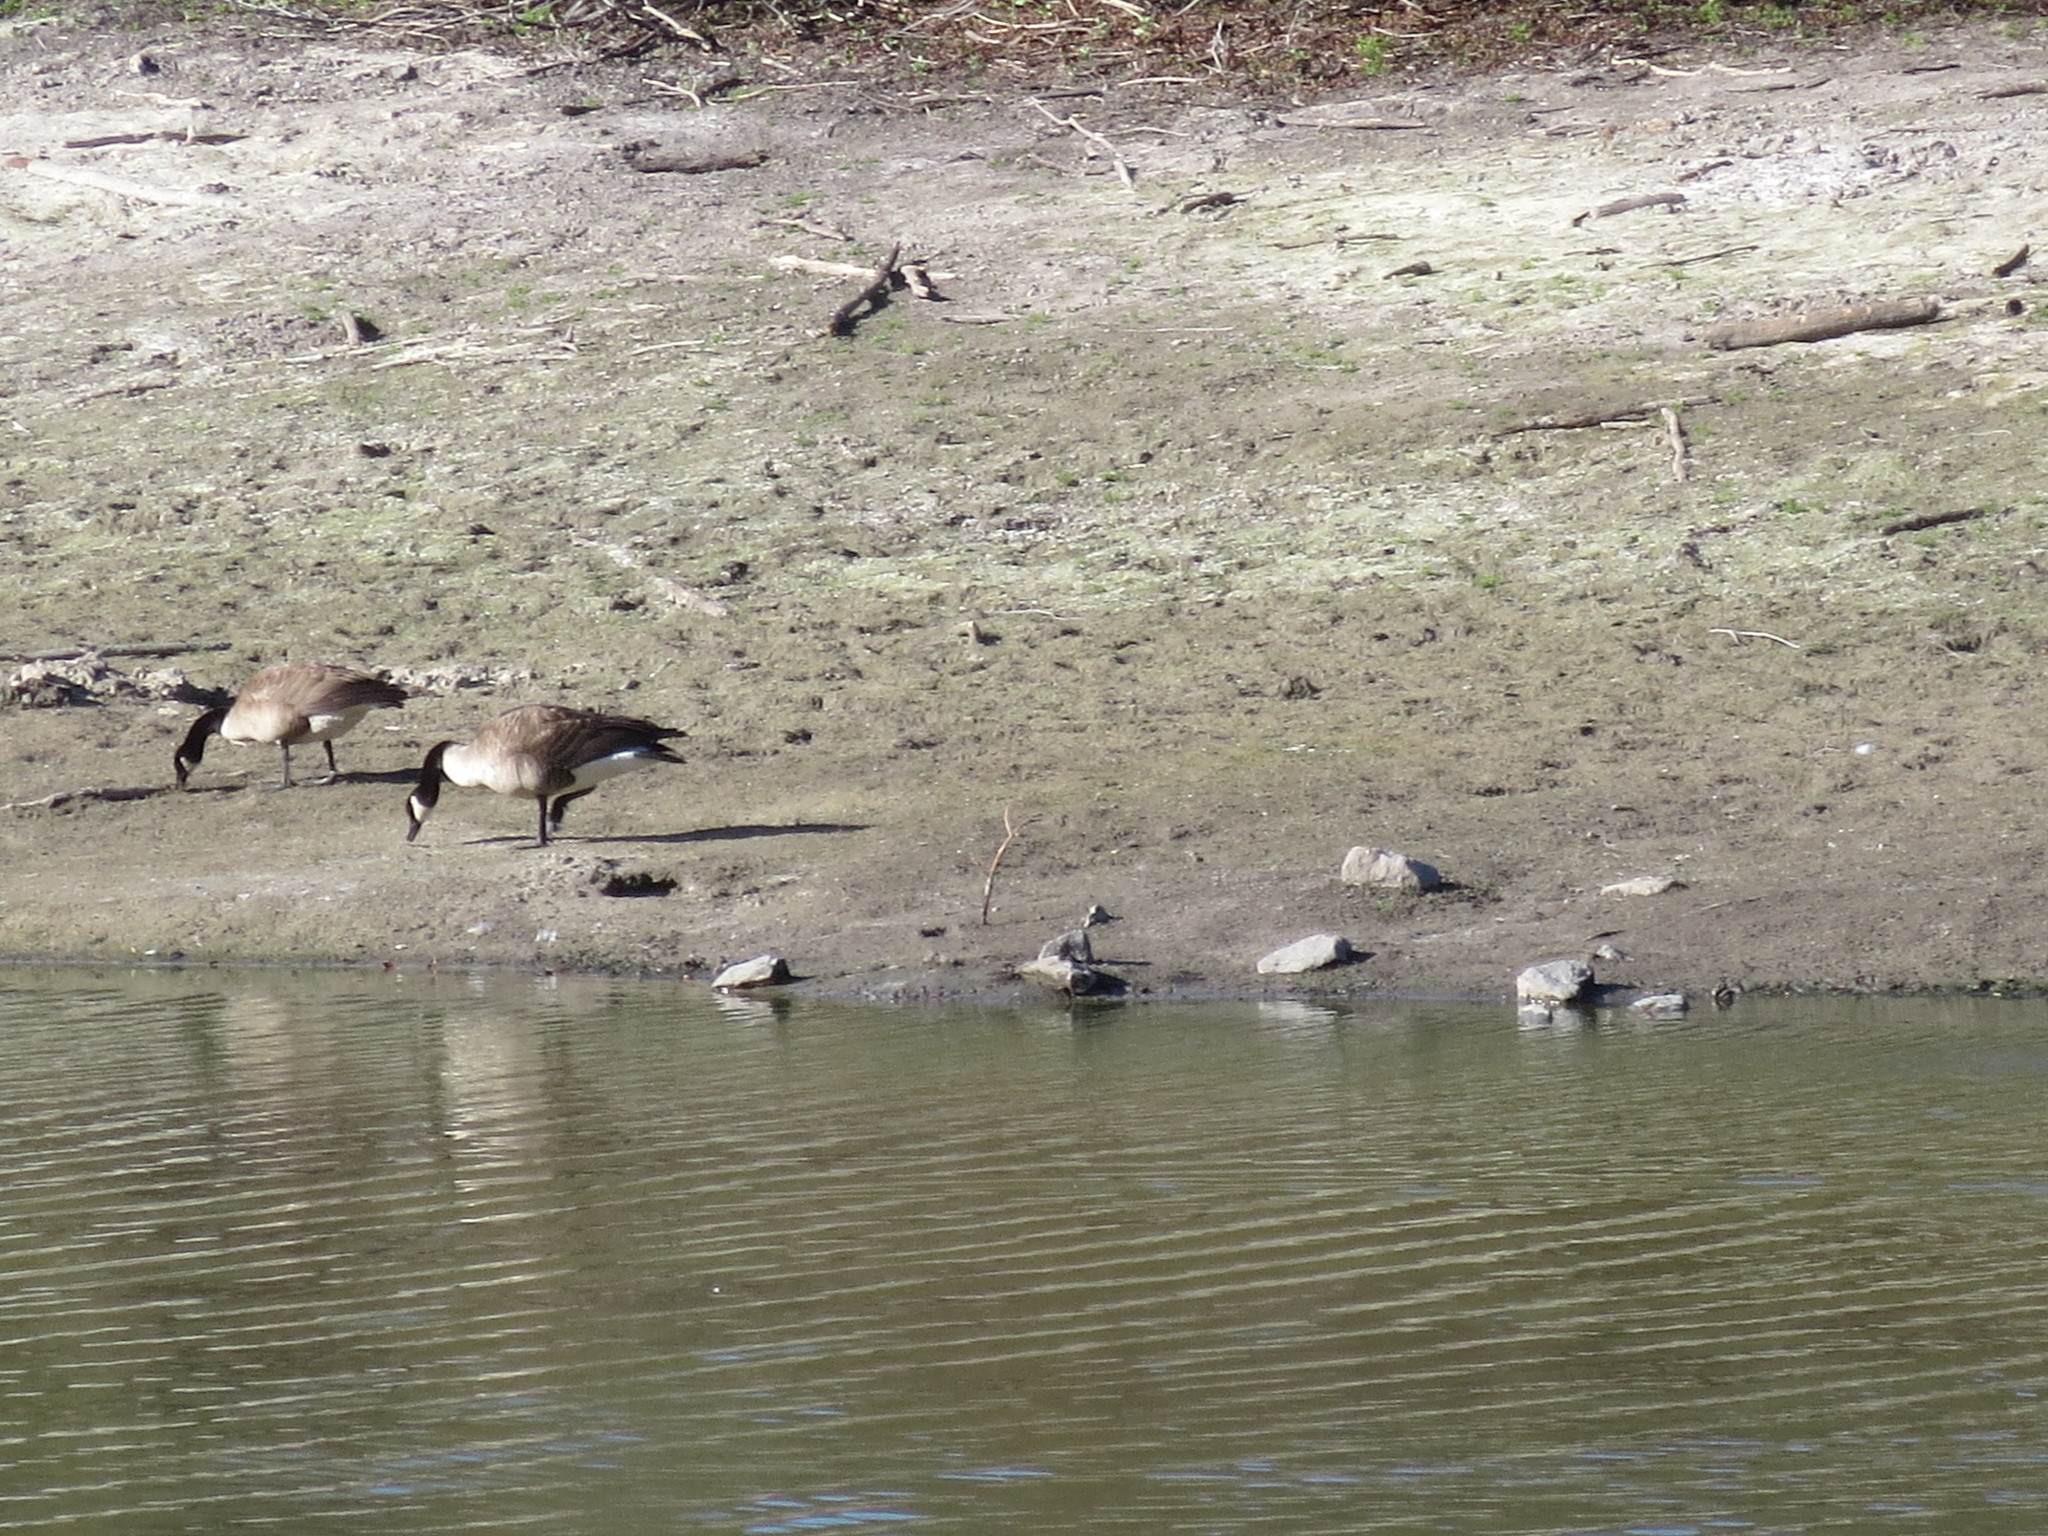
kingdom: Animalia
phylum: Chordata
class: Aves
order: Anseriformes
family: Anatidae
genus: Branta
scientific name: Branta canadensis
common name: Canada goose
